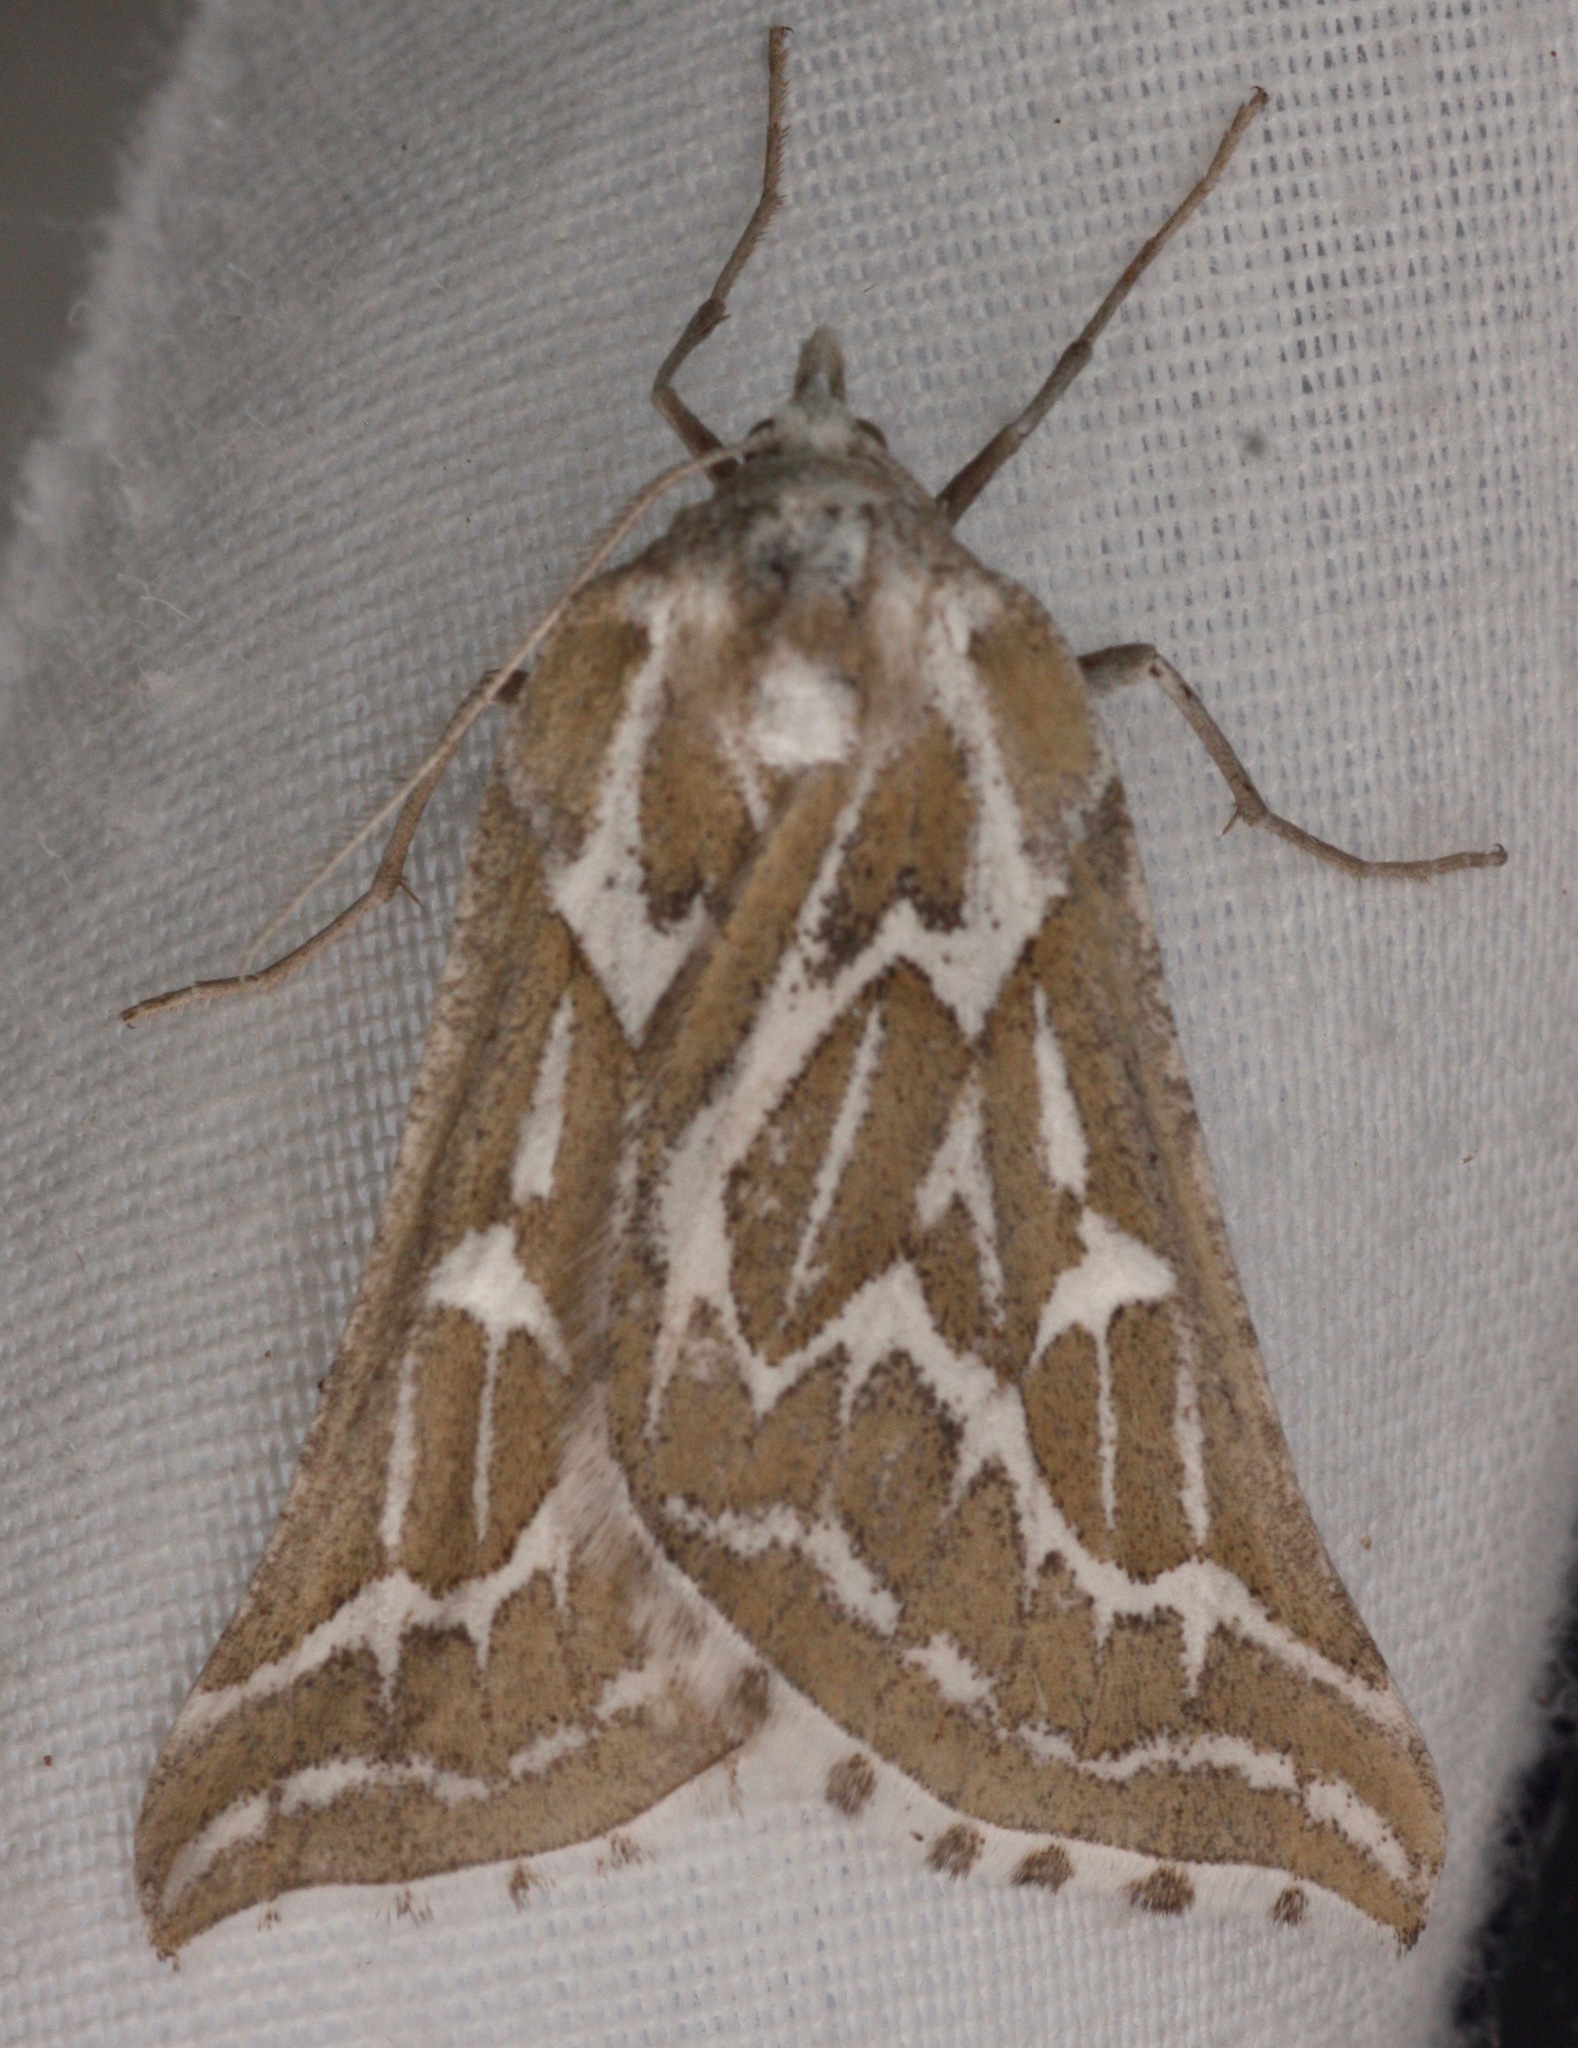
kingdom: Animalia
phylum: Arthropoda
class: Insecta
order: Lepidoptera
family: Geometridae
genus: Plataea
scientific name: Plataea trilinearia
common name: Sagebrush girdle moth
